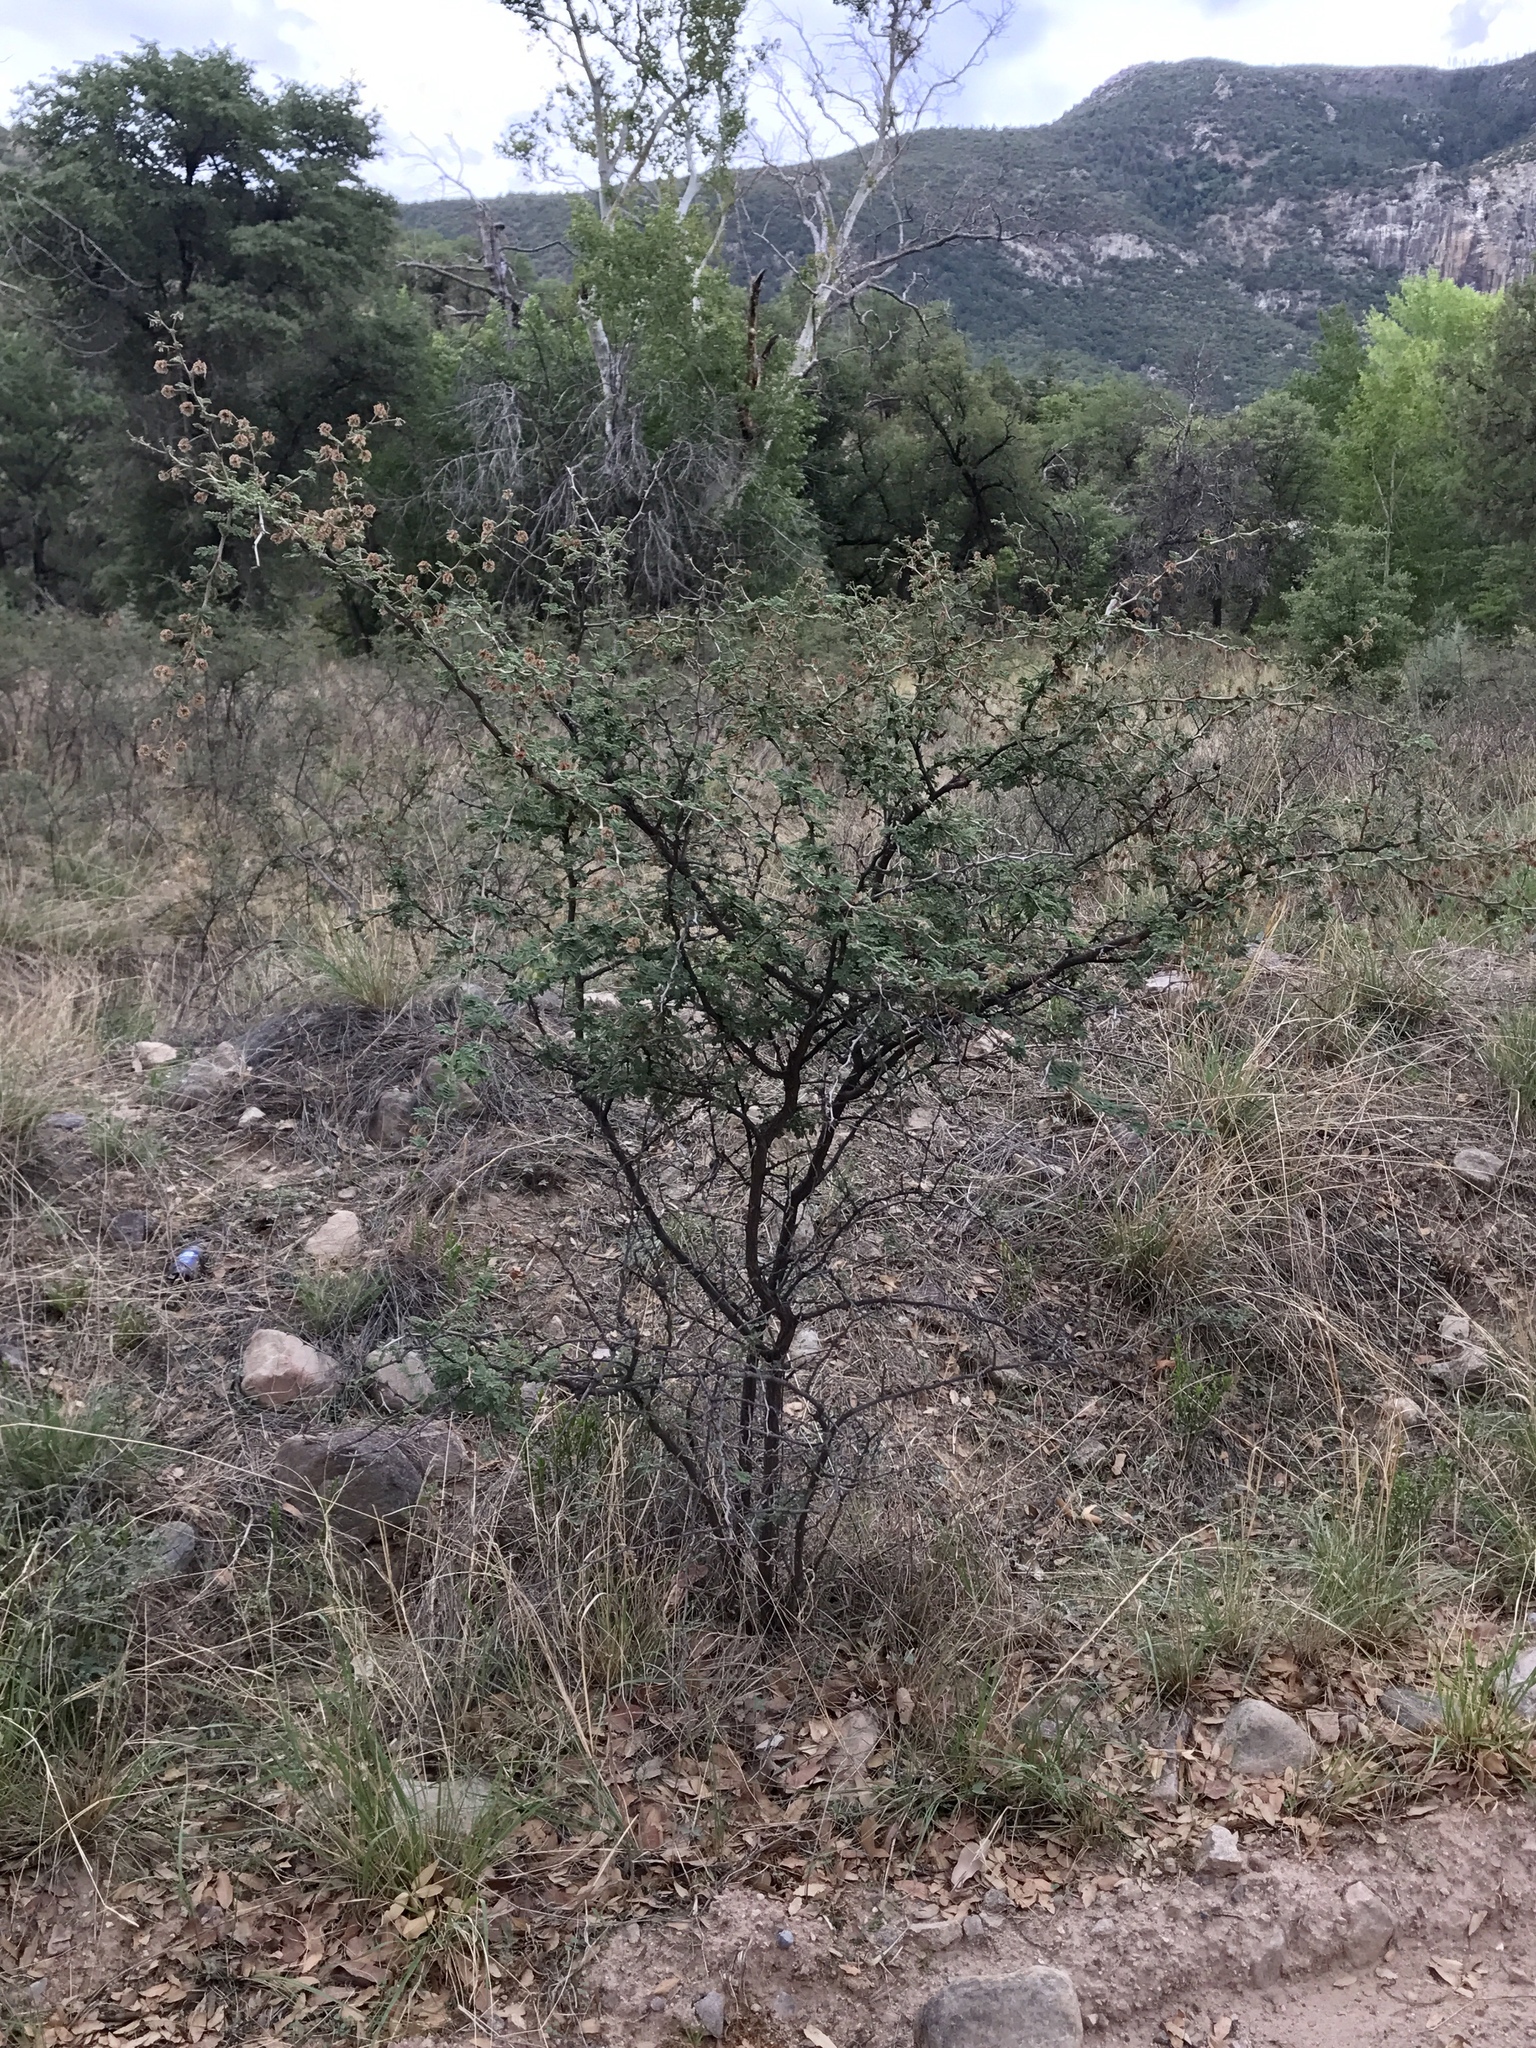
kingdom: Plantae
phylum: Tracheophyta
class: Magnoliopsida
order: Fabales
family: Fabaceae
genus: Mimosa
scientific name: Mimosa aculeaticarpa
